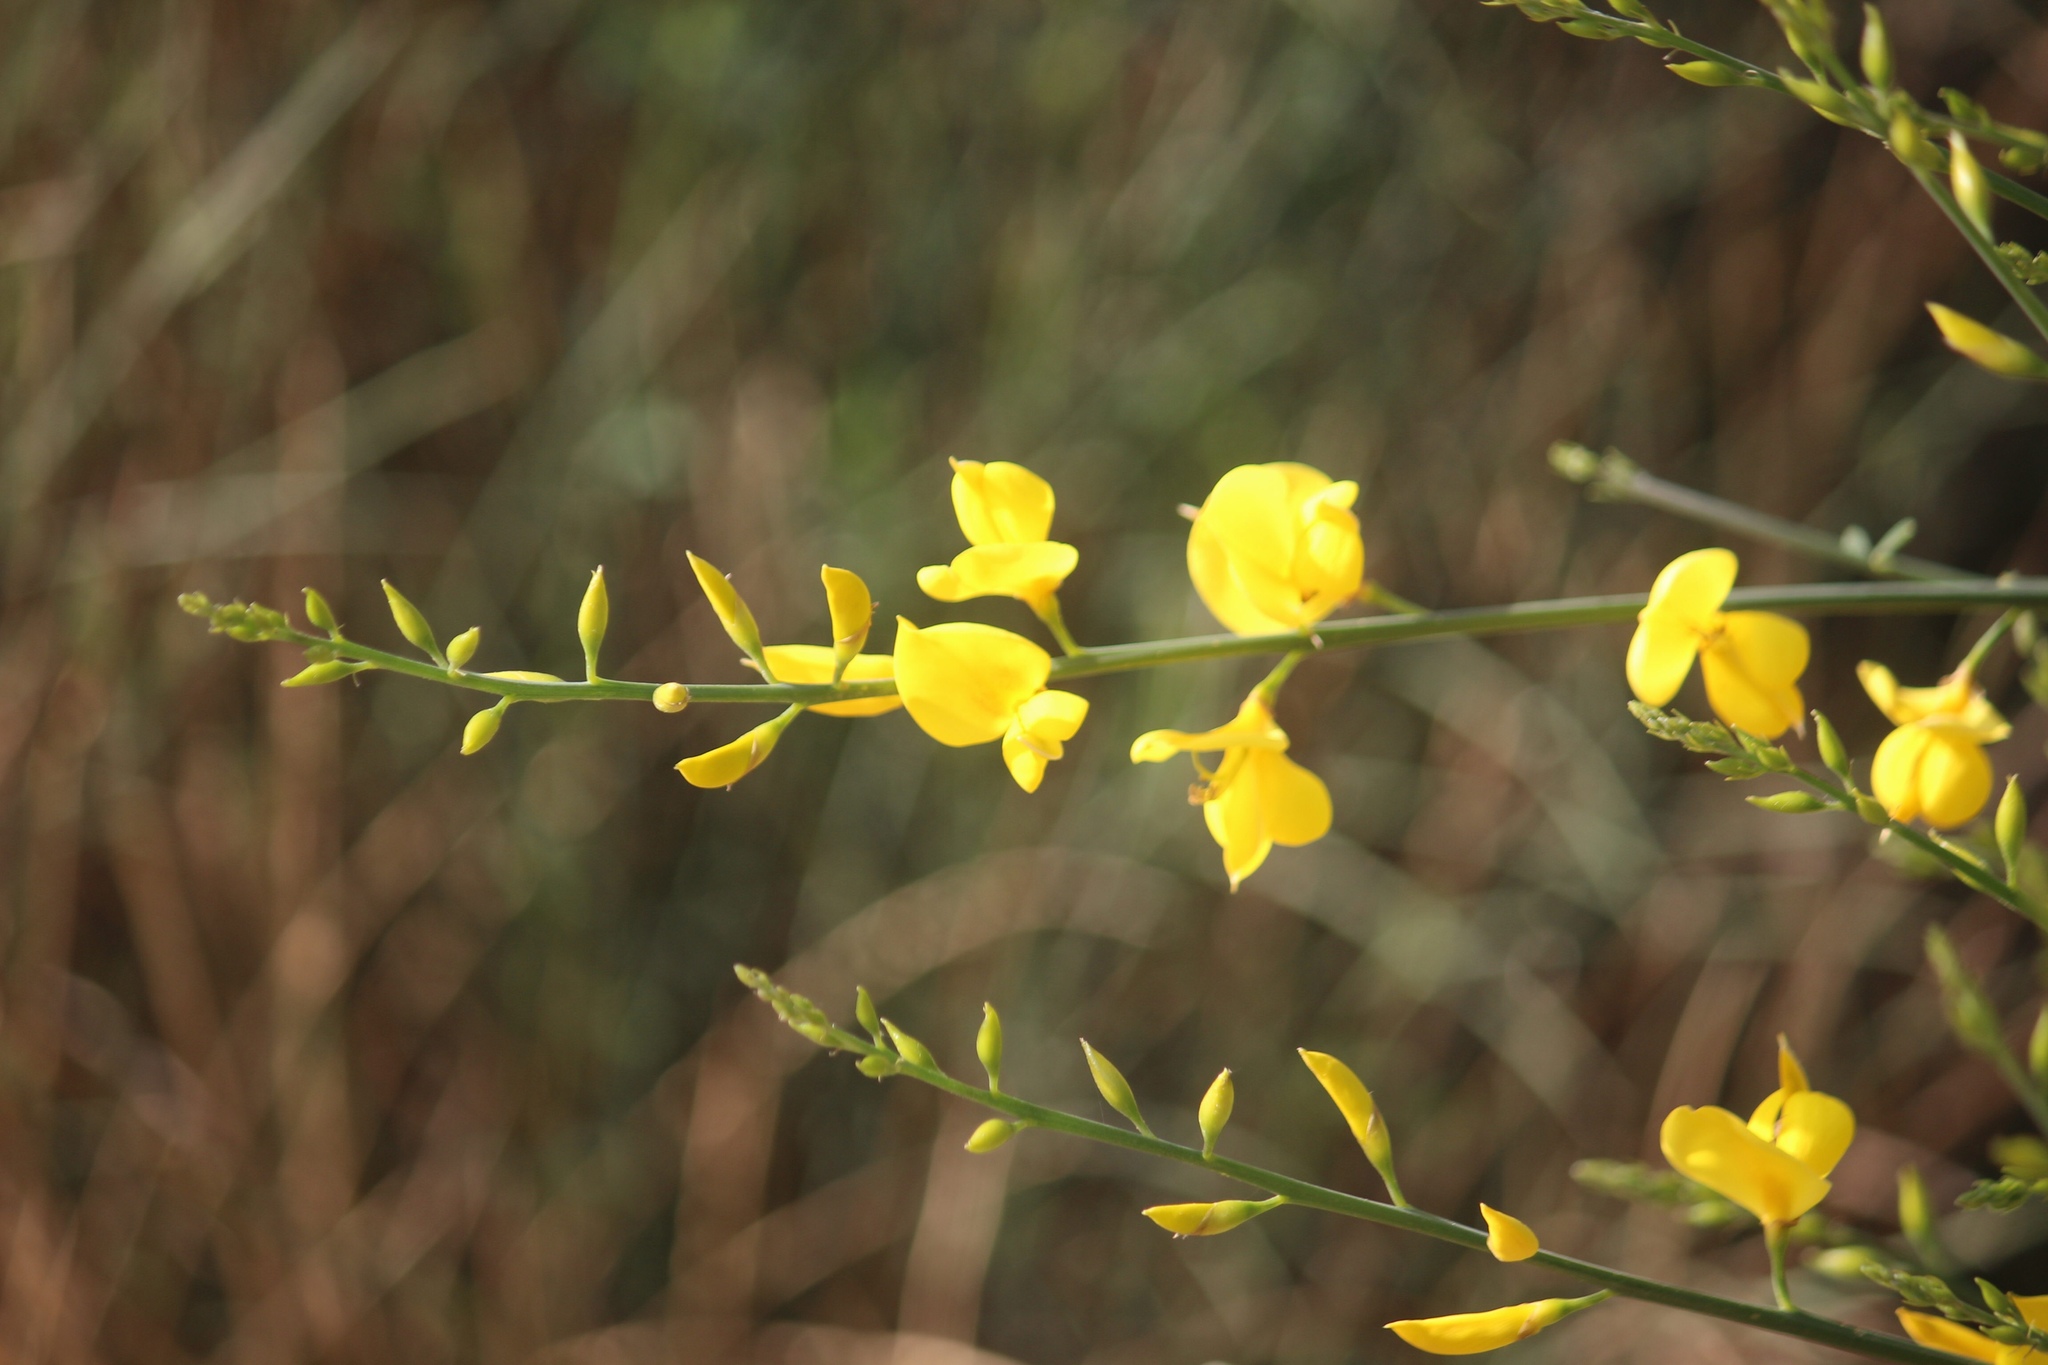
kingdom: Plantae
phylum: Tracheophyta
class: Magnoliopsida
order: Fabales
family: Fabaceae
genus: Spartium
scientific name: Spartium junceum
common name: Spanish broom
